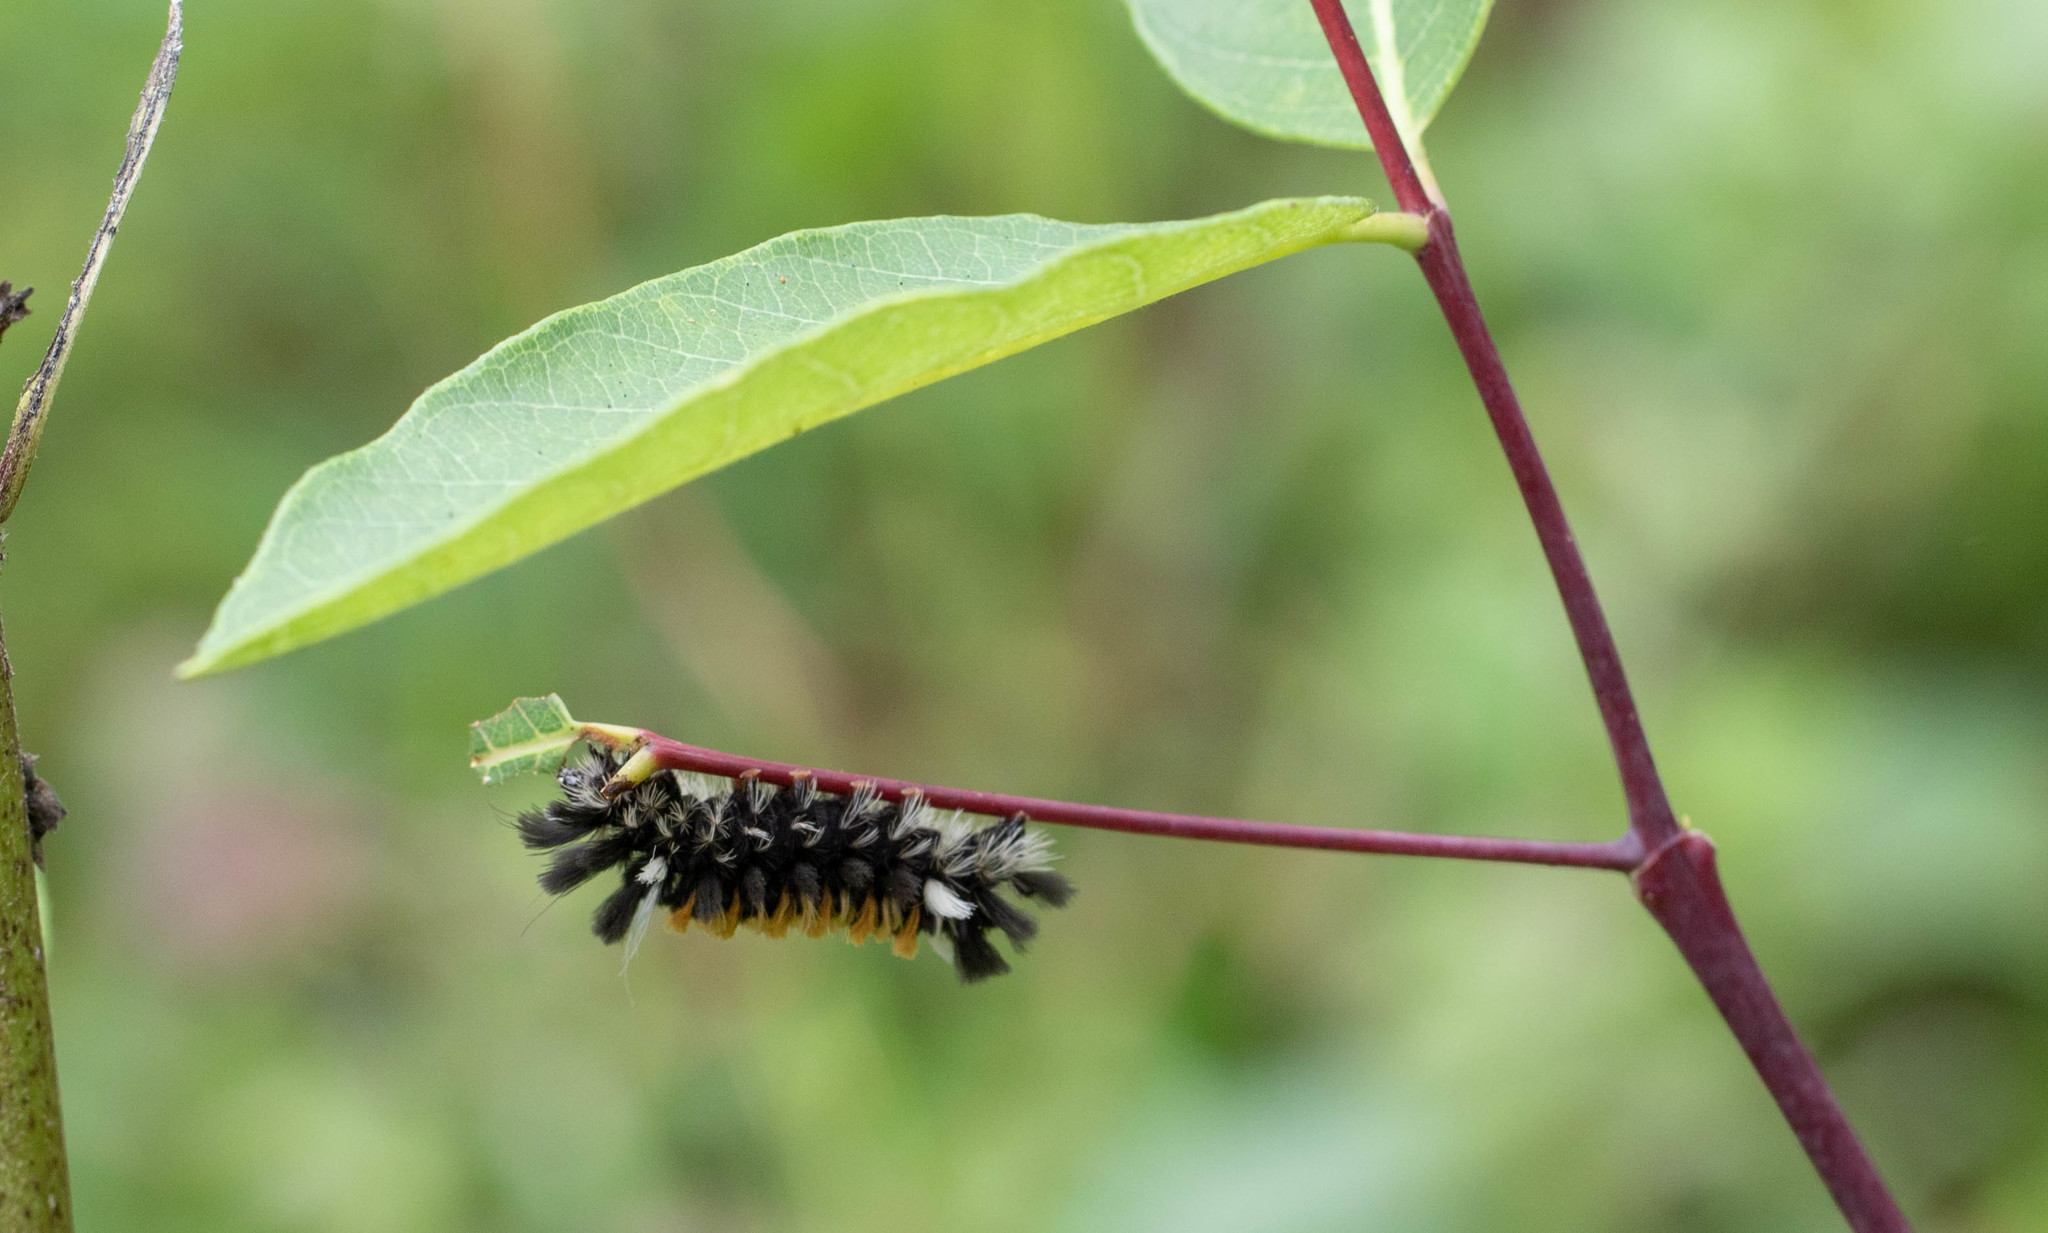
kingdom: Animalia
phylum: Arthropoda
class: Insecta
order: Lepidoptera
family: Erebidae
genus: Euchaetes
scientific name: Euchaetes egle
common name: Milkweed tussock moth
